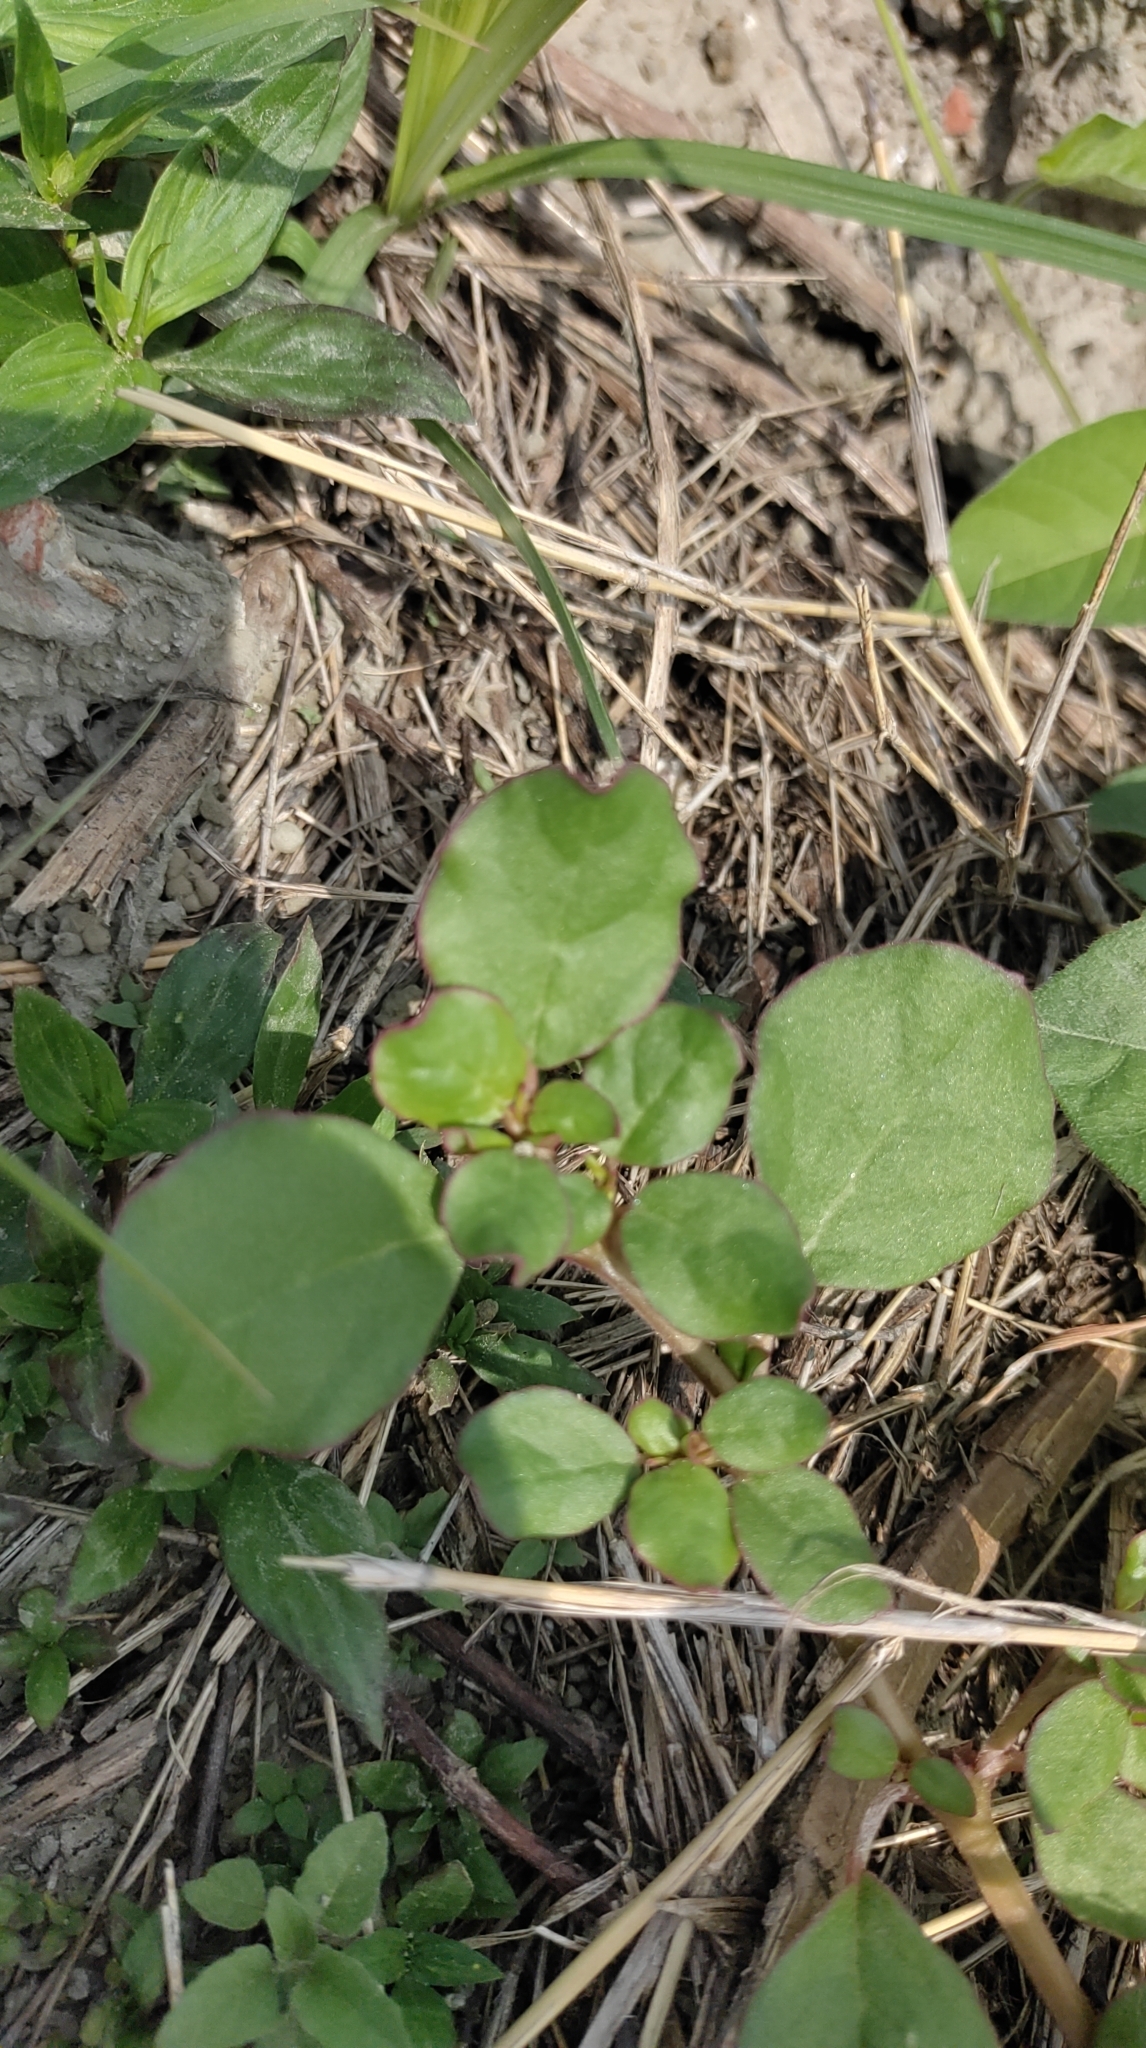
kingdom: Plantae
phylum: Tracheophyta
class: Magnoliopsida
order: Caryophyllales
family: Aizoaceae
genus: Trianthema
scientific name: Trianthema portulacastrum
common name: Desert horsepurslane
